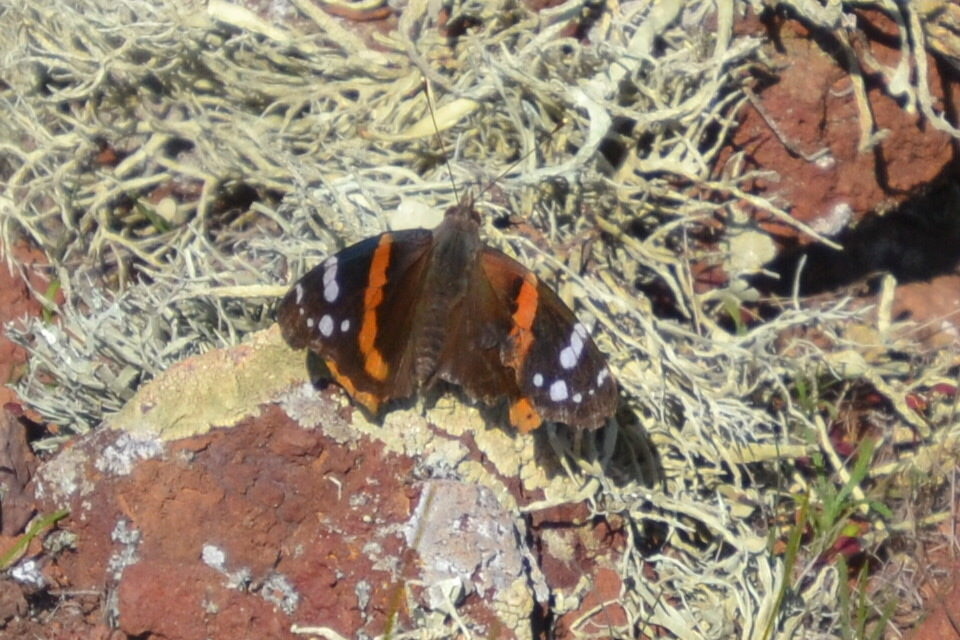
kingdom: Animalia
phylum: Arthropoda
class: Insecta
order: Lepidoptera
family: Nymphalidae
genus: Vanessa
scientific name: Vanessa atalanta
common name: Red admiral
